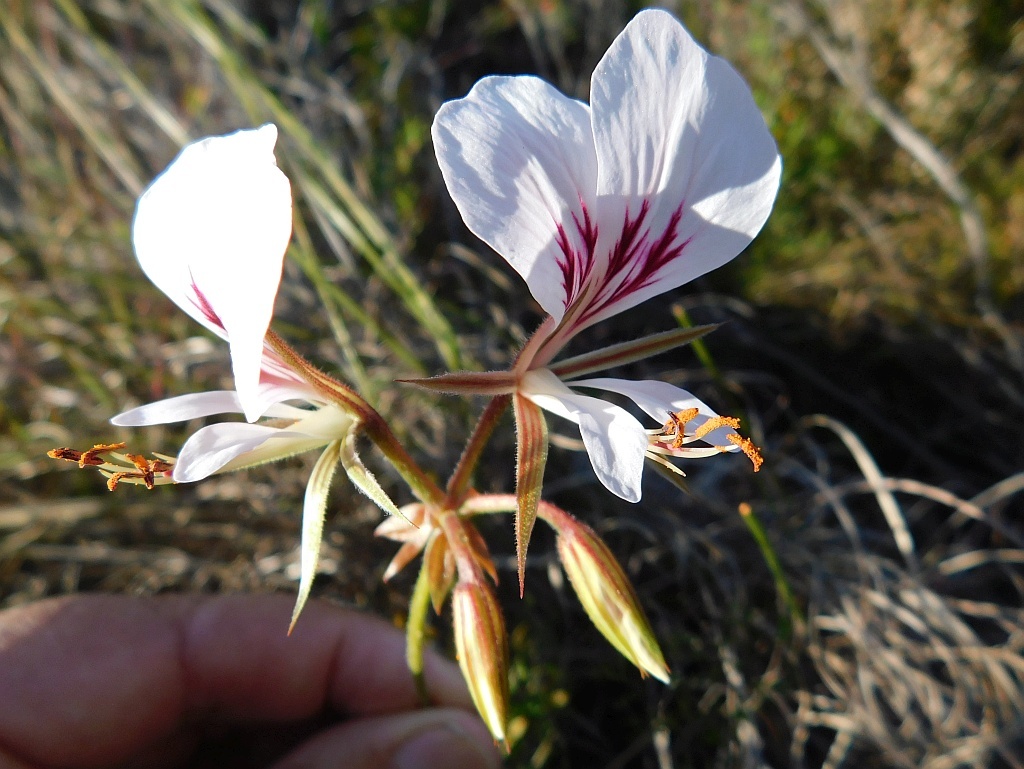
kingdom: Plantae
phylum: Tracheophyta
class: Magnoliopsida
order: Geraniales
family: Geraniaceae
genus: Pelargonium
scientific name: Pelargonium myrrhifolium
